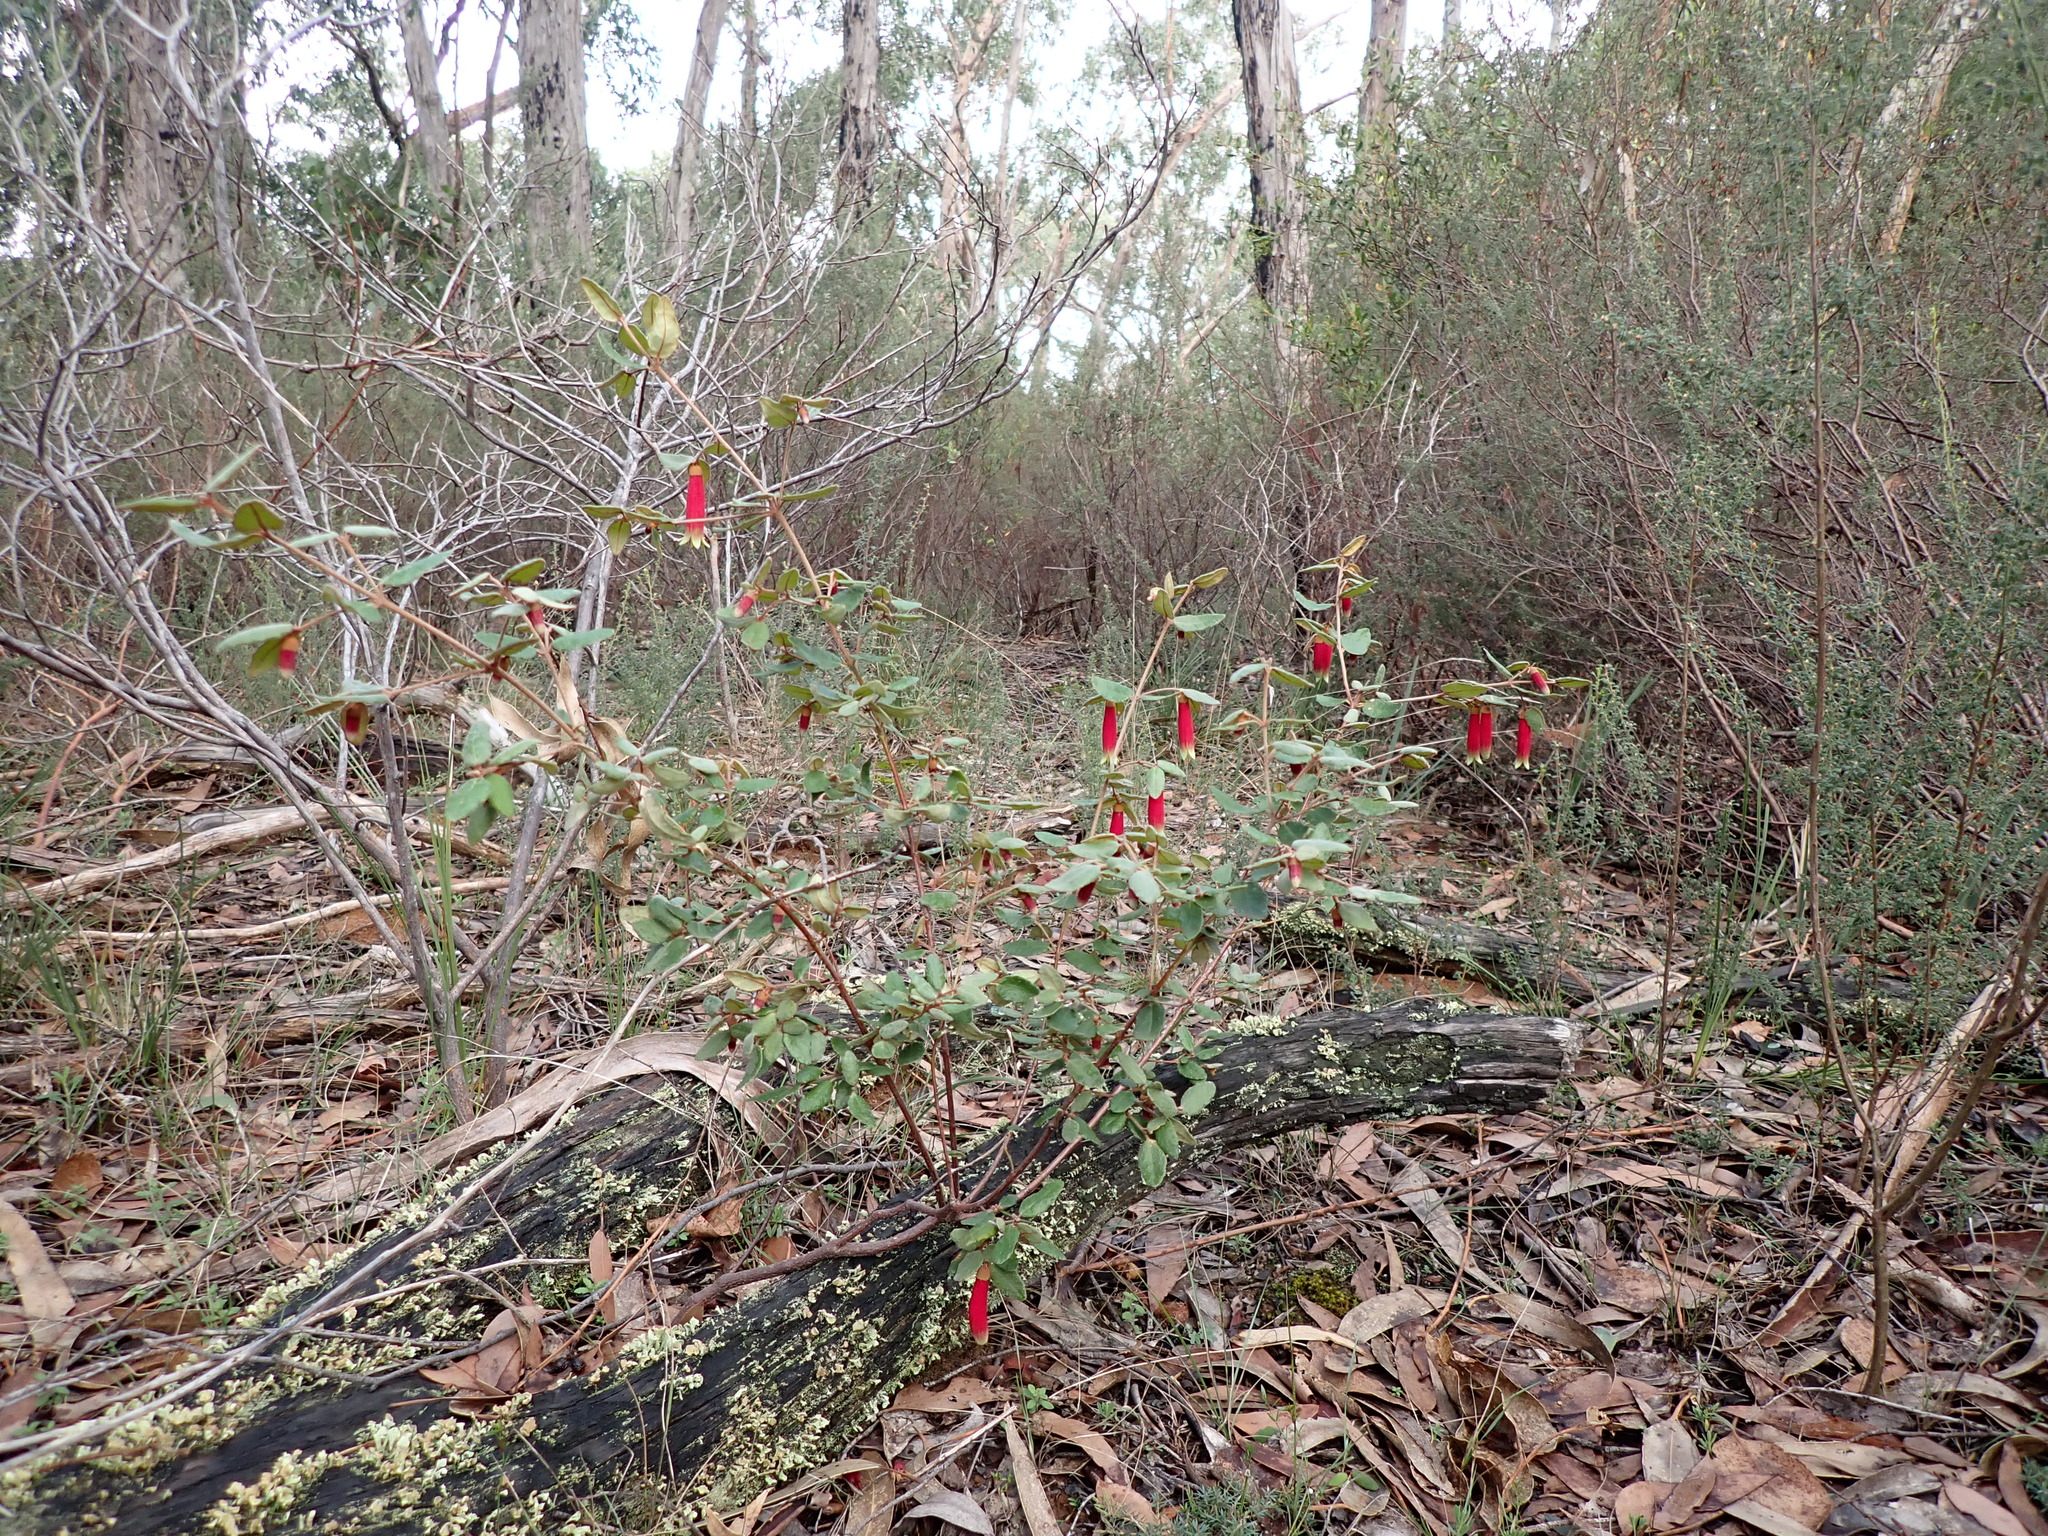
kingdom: Plantae
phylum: Tracheophyta
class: Magnoliopsida
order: Sapindales
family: Rutaceae
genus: Correa
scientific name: Correa reflexa
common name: Common correa
